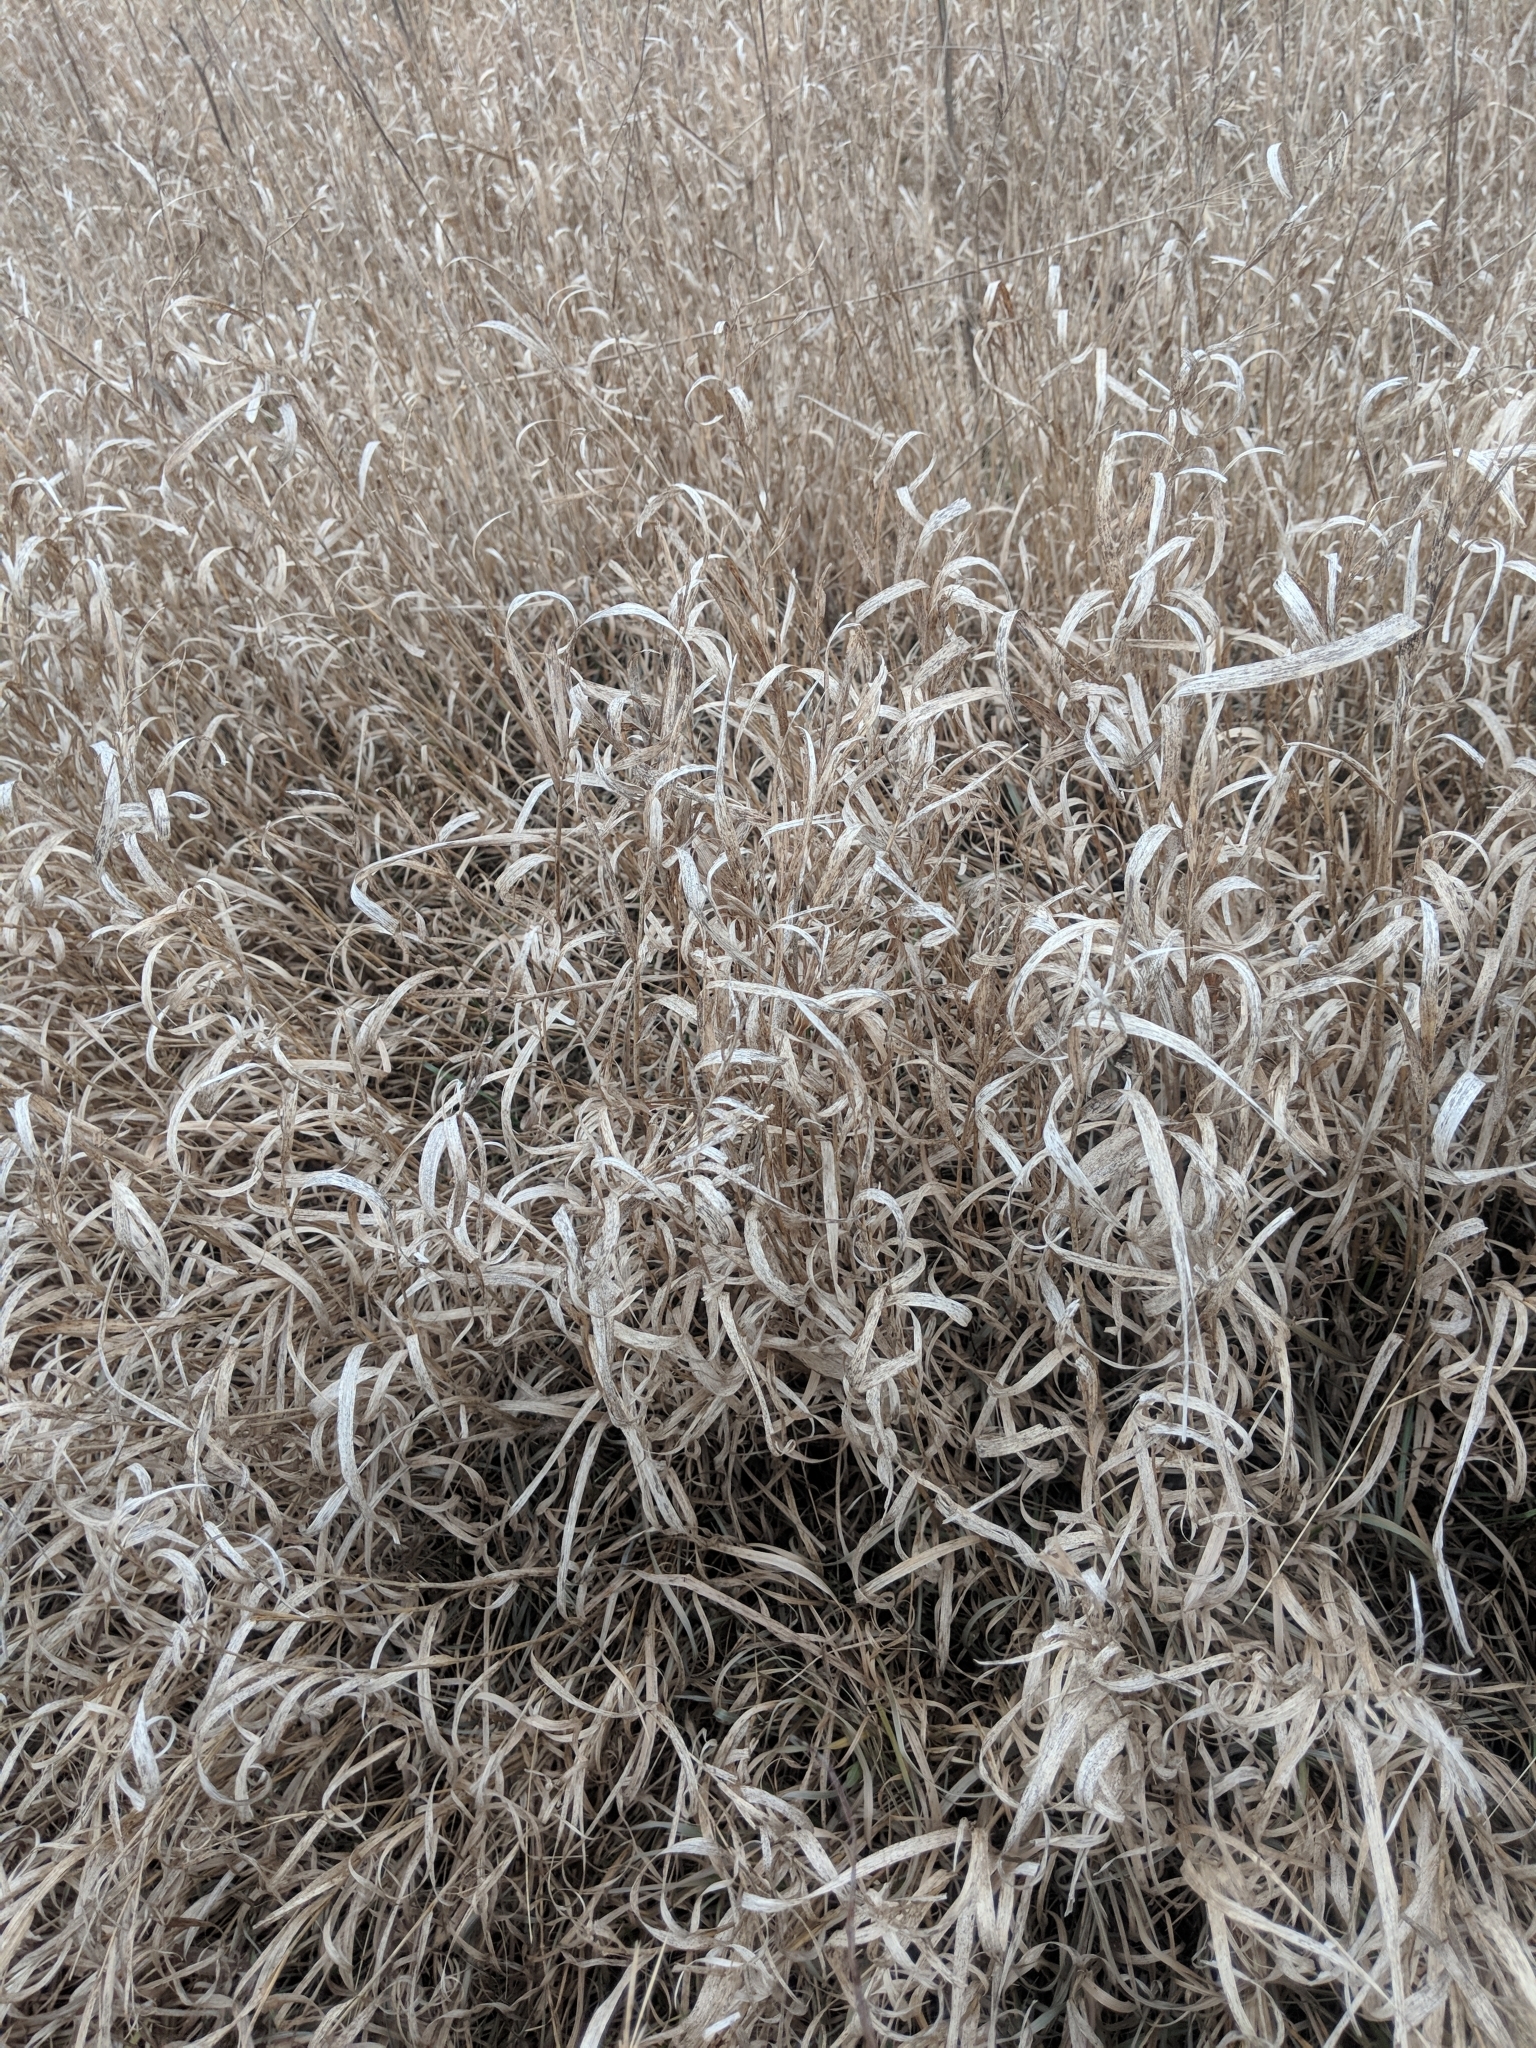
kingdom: Plantae
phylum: Tracheophyta
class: Liliopsida
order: Poales
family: Poaceae
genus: Bromus
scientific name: Bromus inermis
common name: Smooth brome
